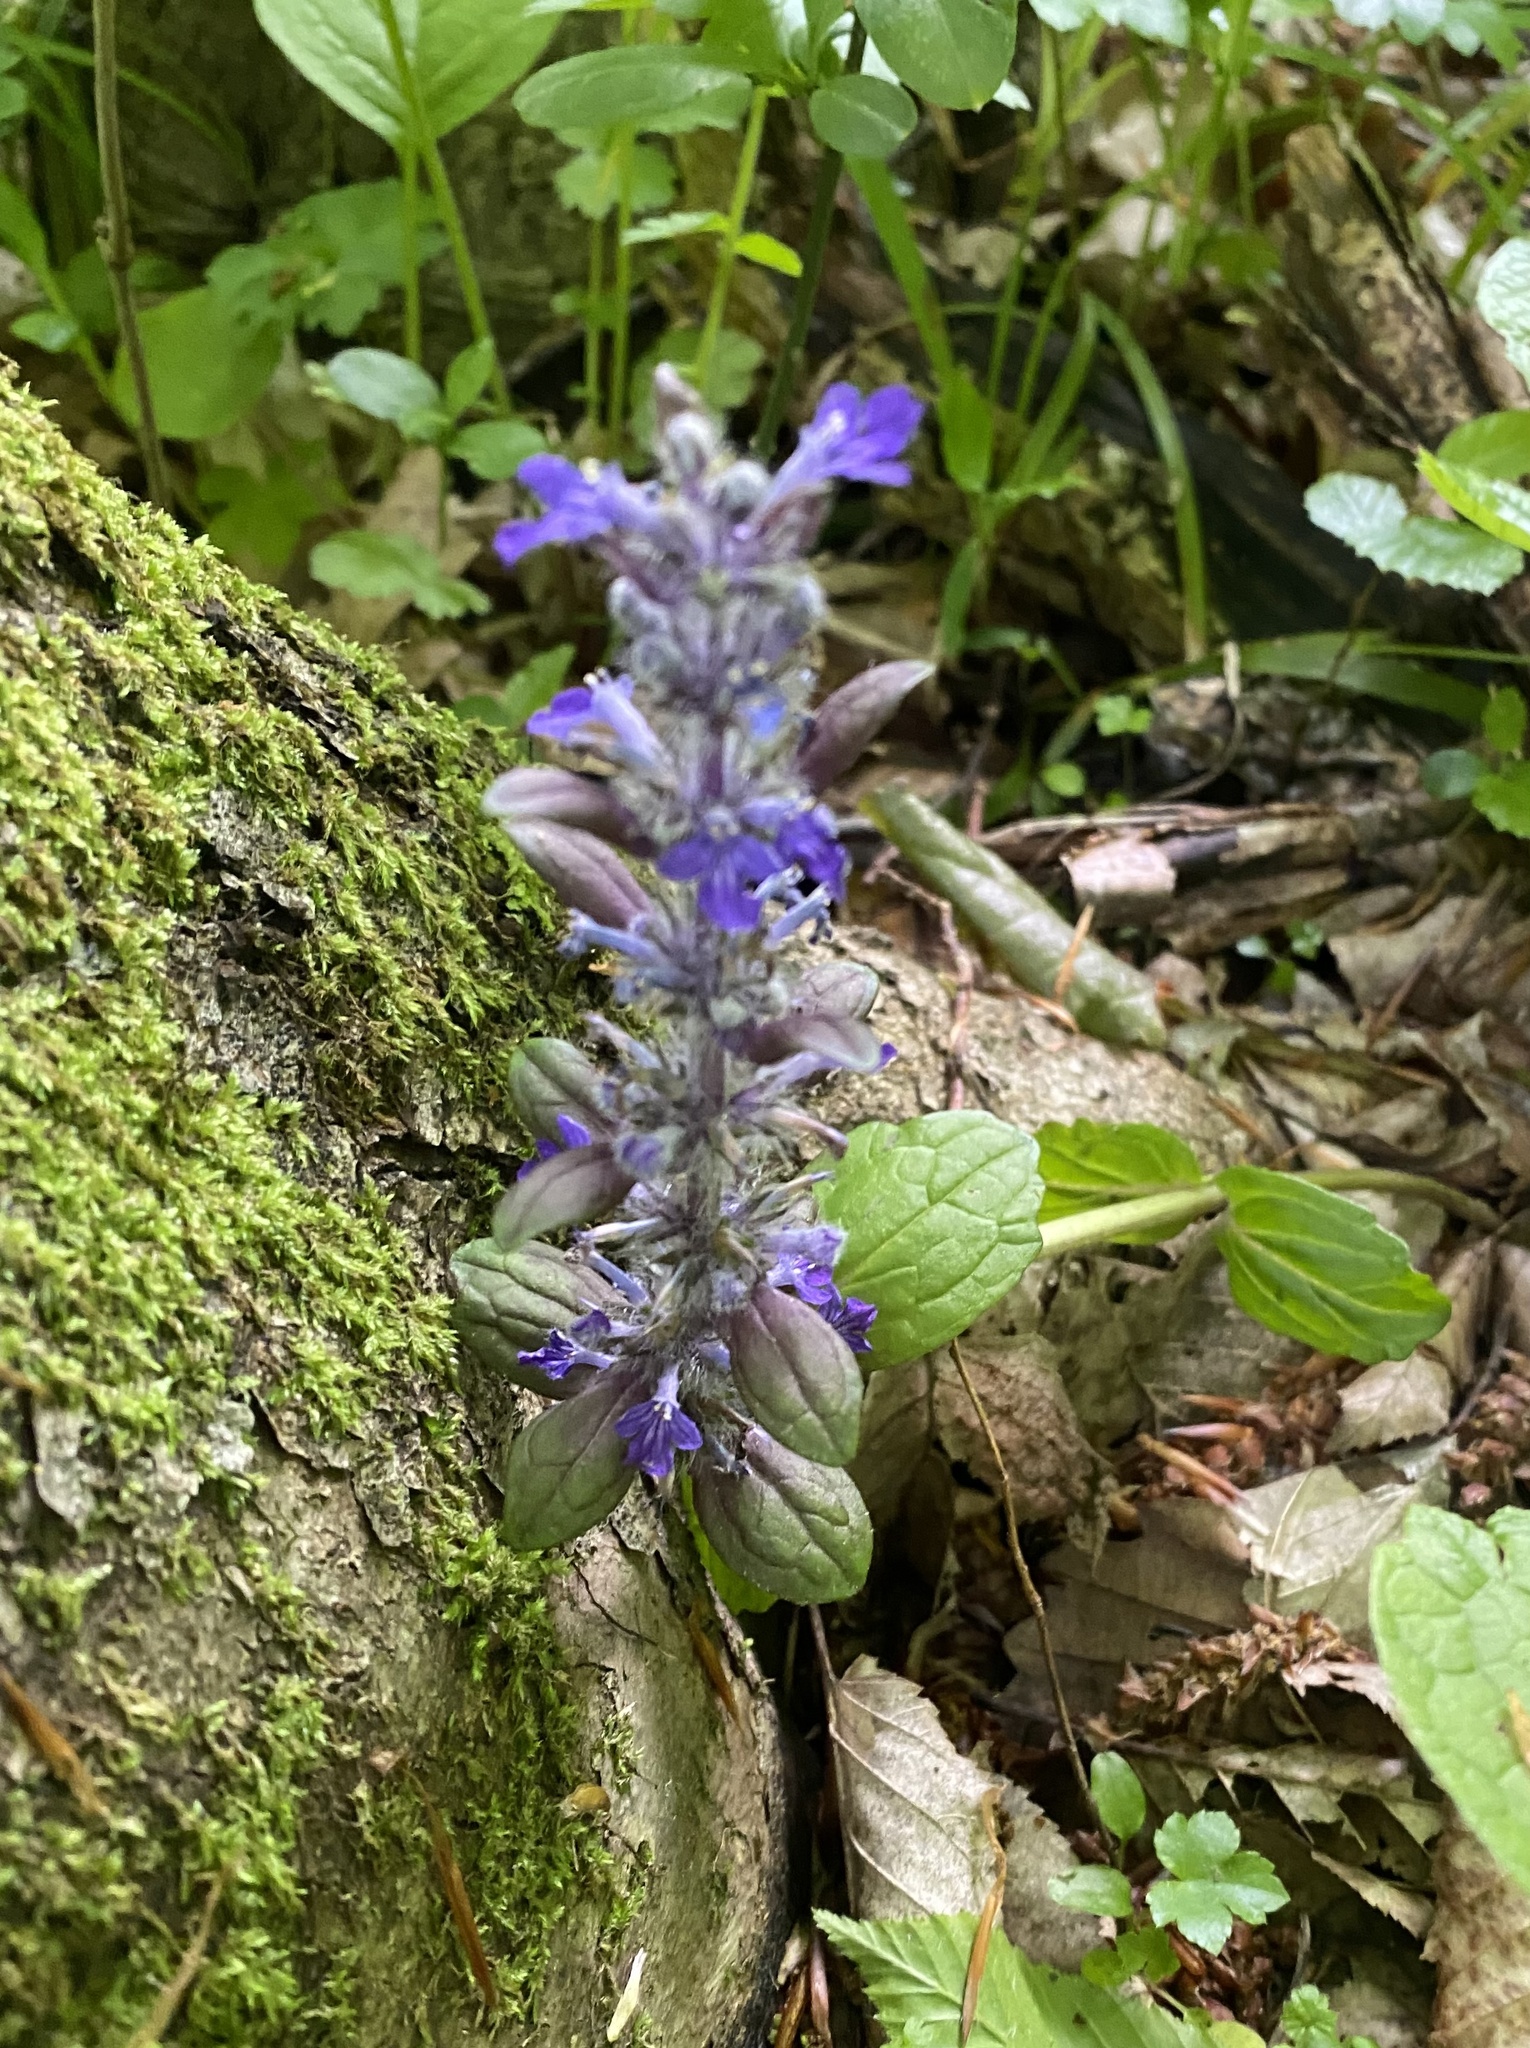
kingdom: Plantae
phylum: Tracheophyta
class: Magnoliopsida
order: Lamiales
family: Lamiaceae
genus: Ajuga
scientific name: Ajuga reptans
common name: Bugle
